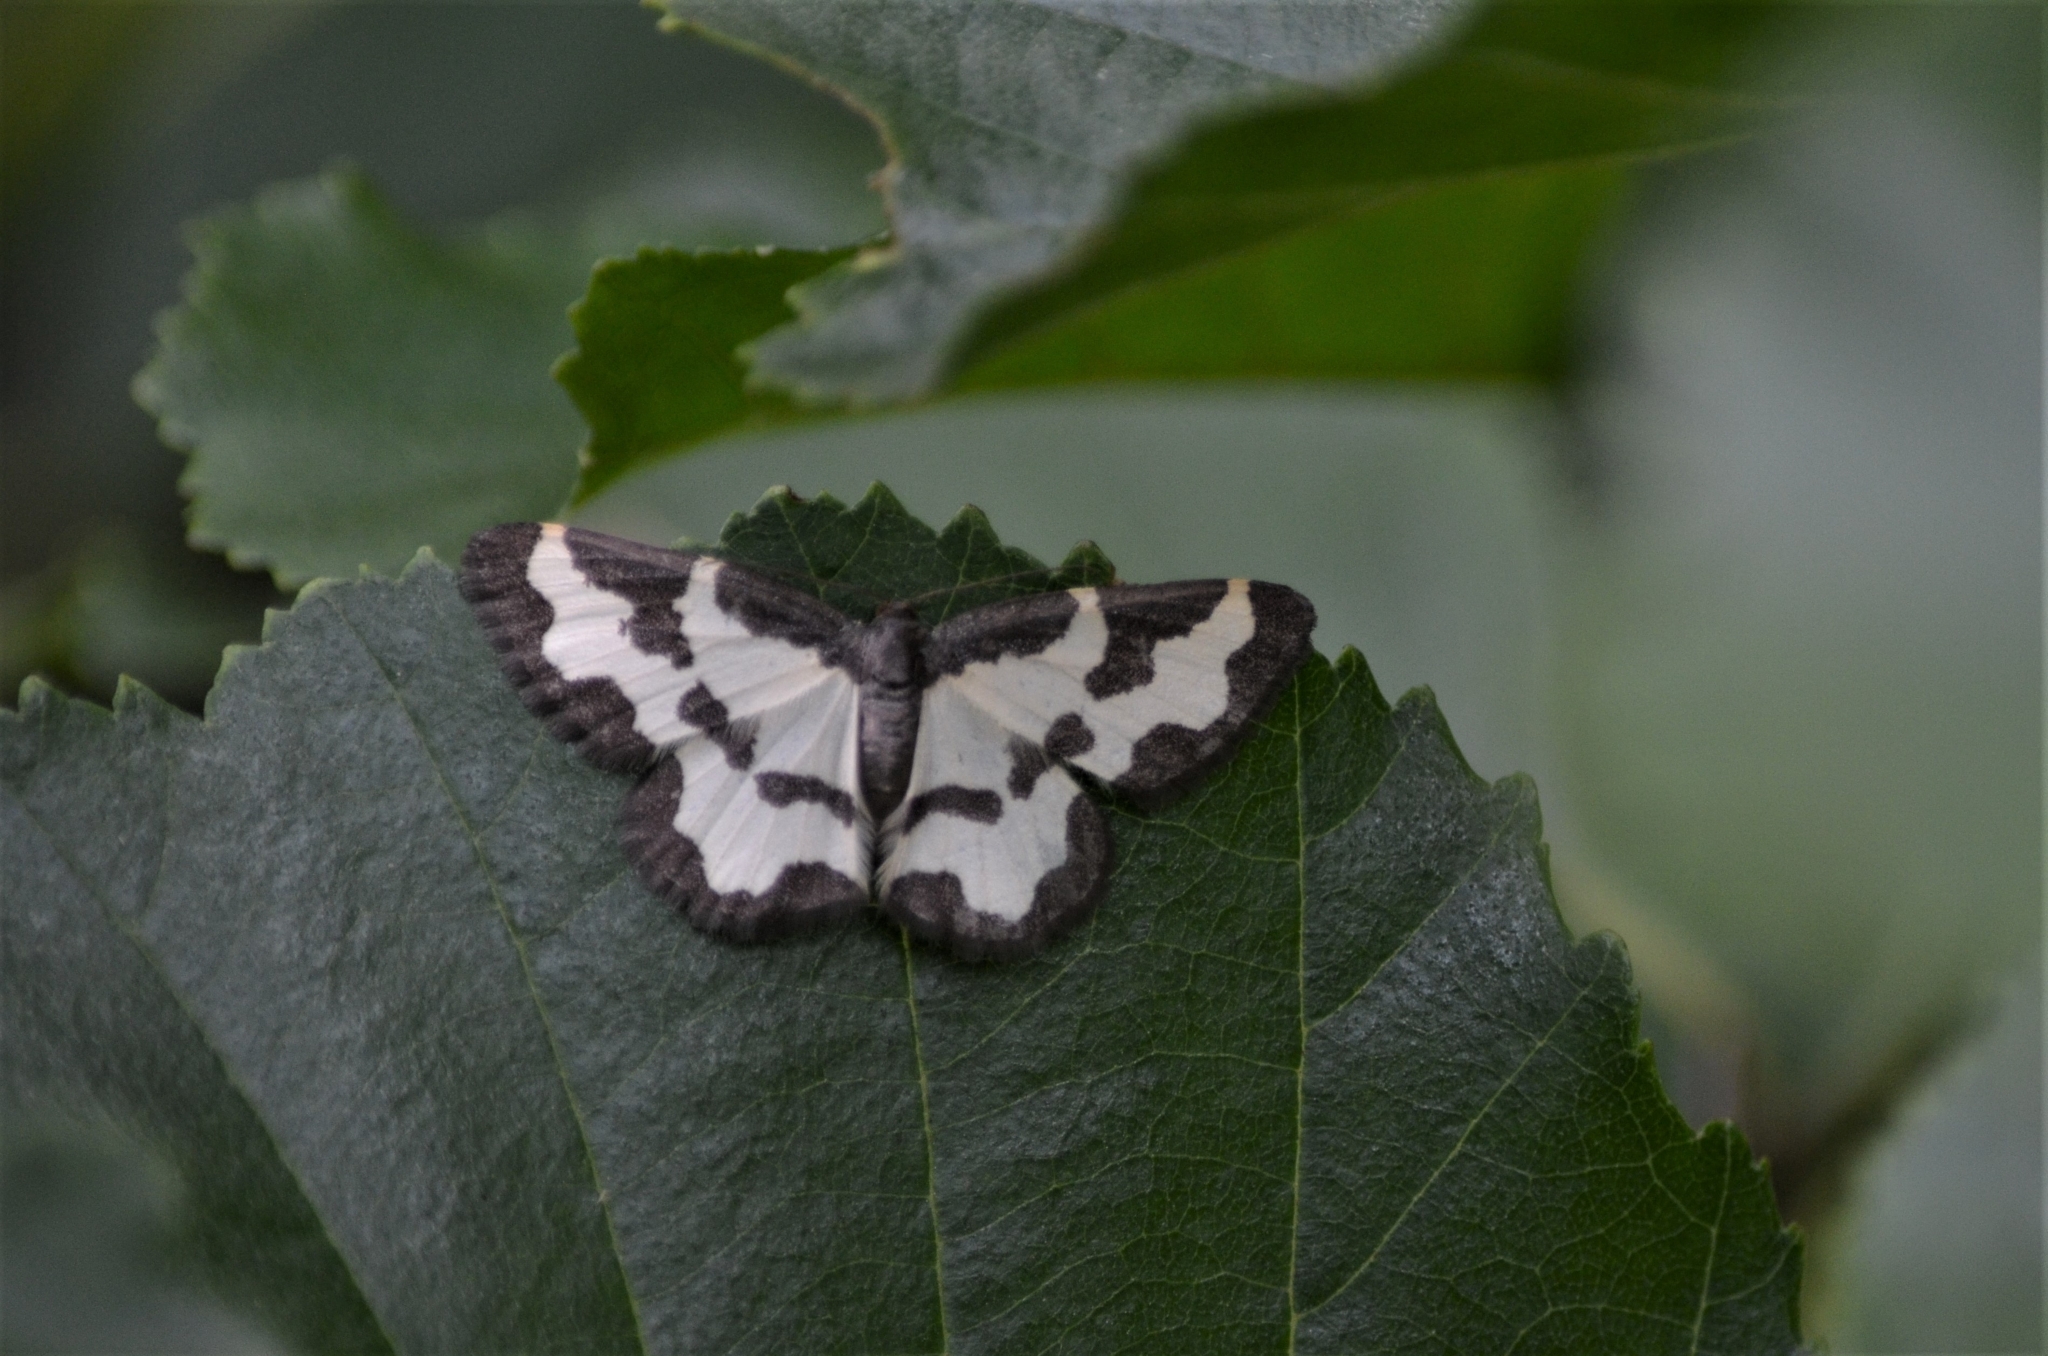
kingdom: Animalia
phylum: Arthropoda
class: Insecta
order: Lepidoptera
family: Geometridae
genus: Lomaspilis
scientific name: Lomaspilis marginata
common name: Clouded border
